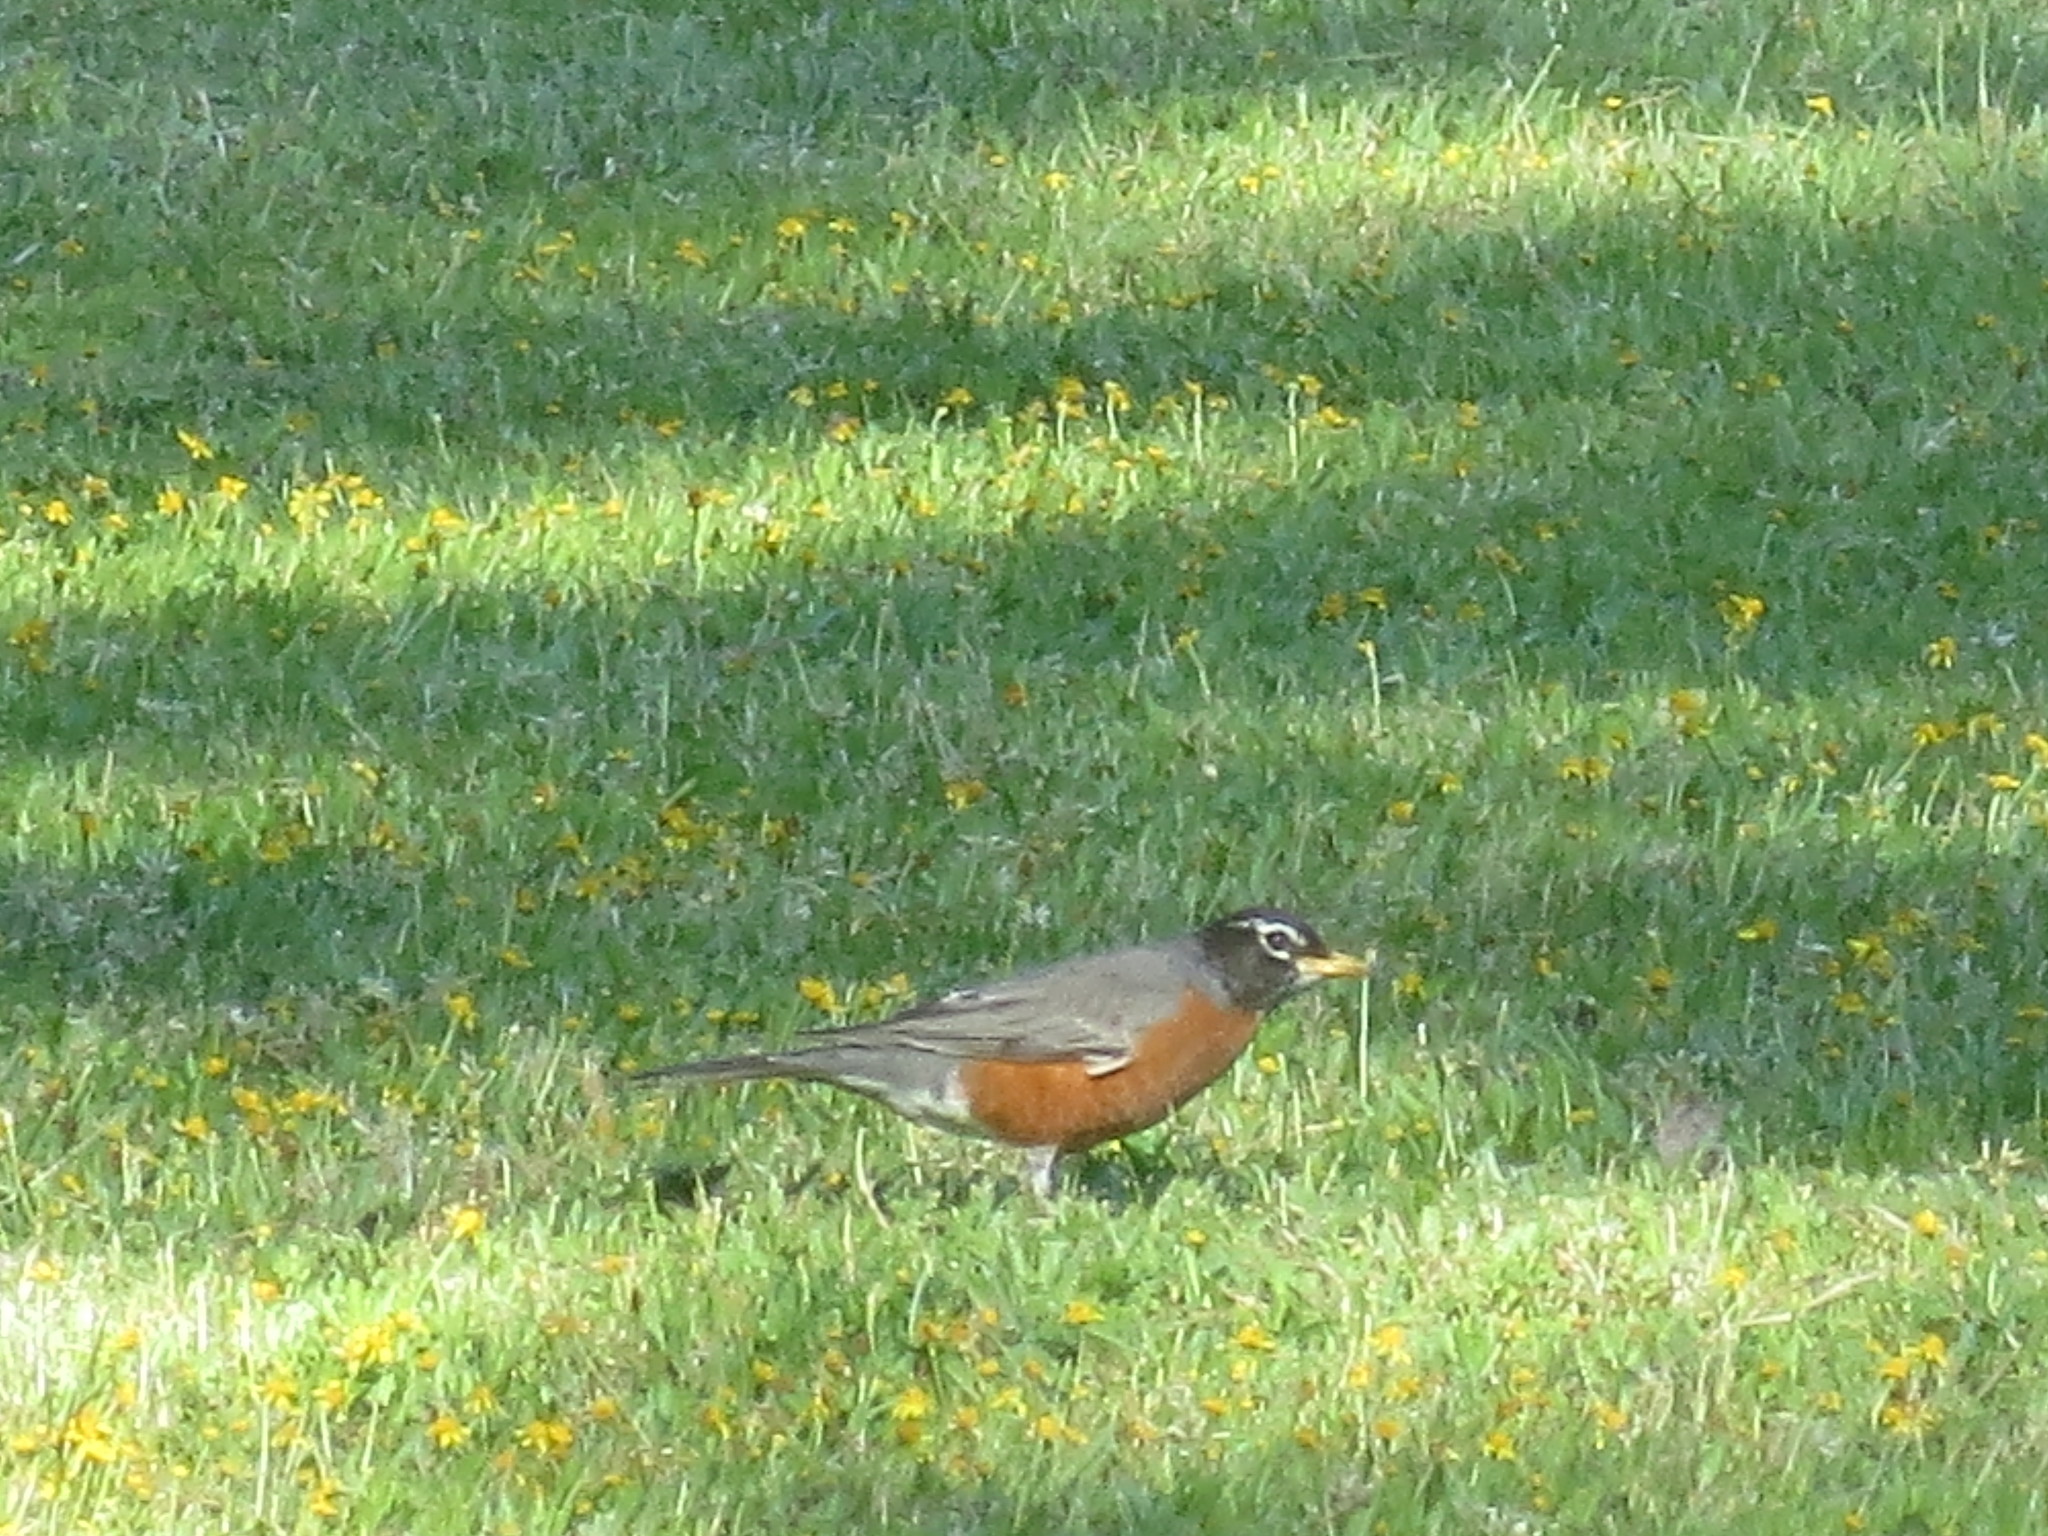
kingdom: Animalia
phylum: Chordata
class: Aves
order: Passeriformes
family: Turdidae
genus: Turdus
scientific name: Turdus migratorius
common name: American robin
